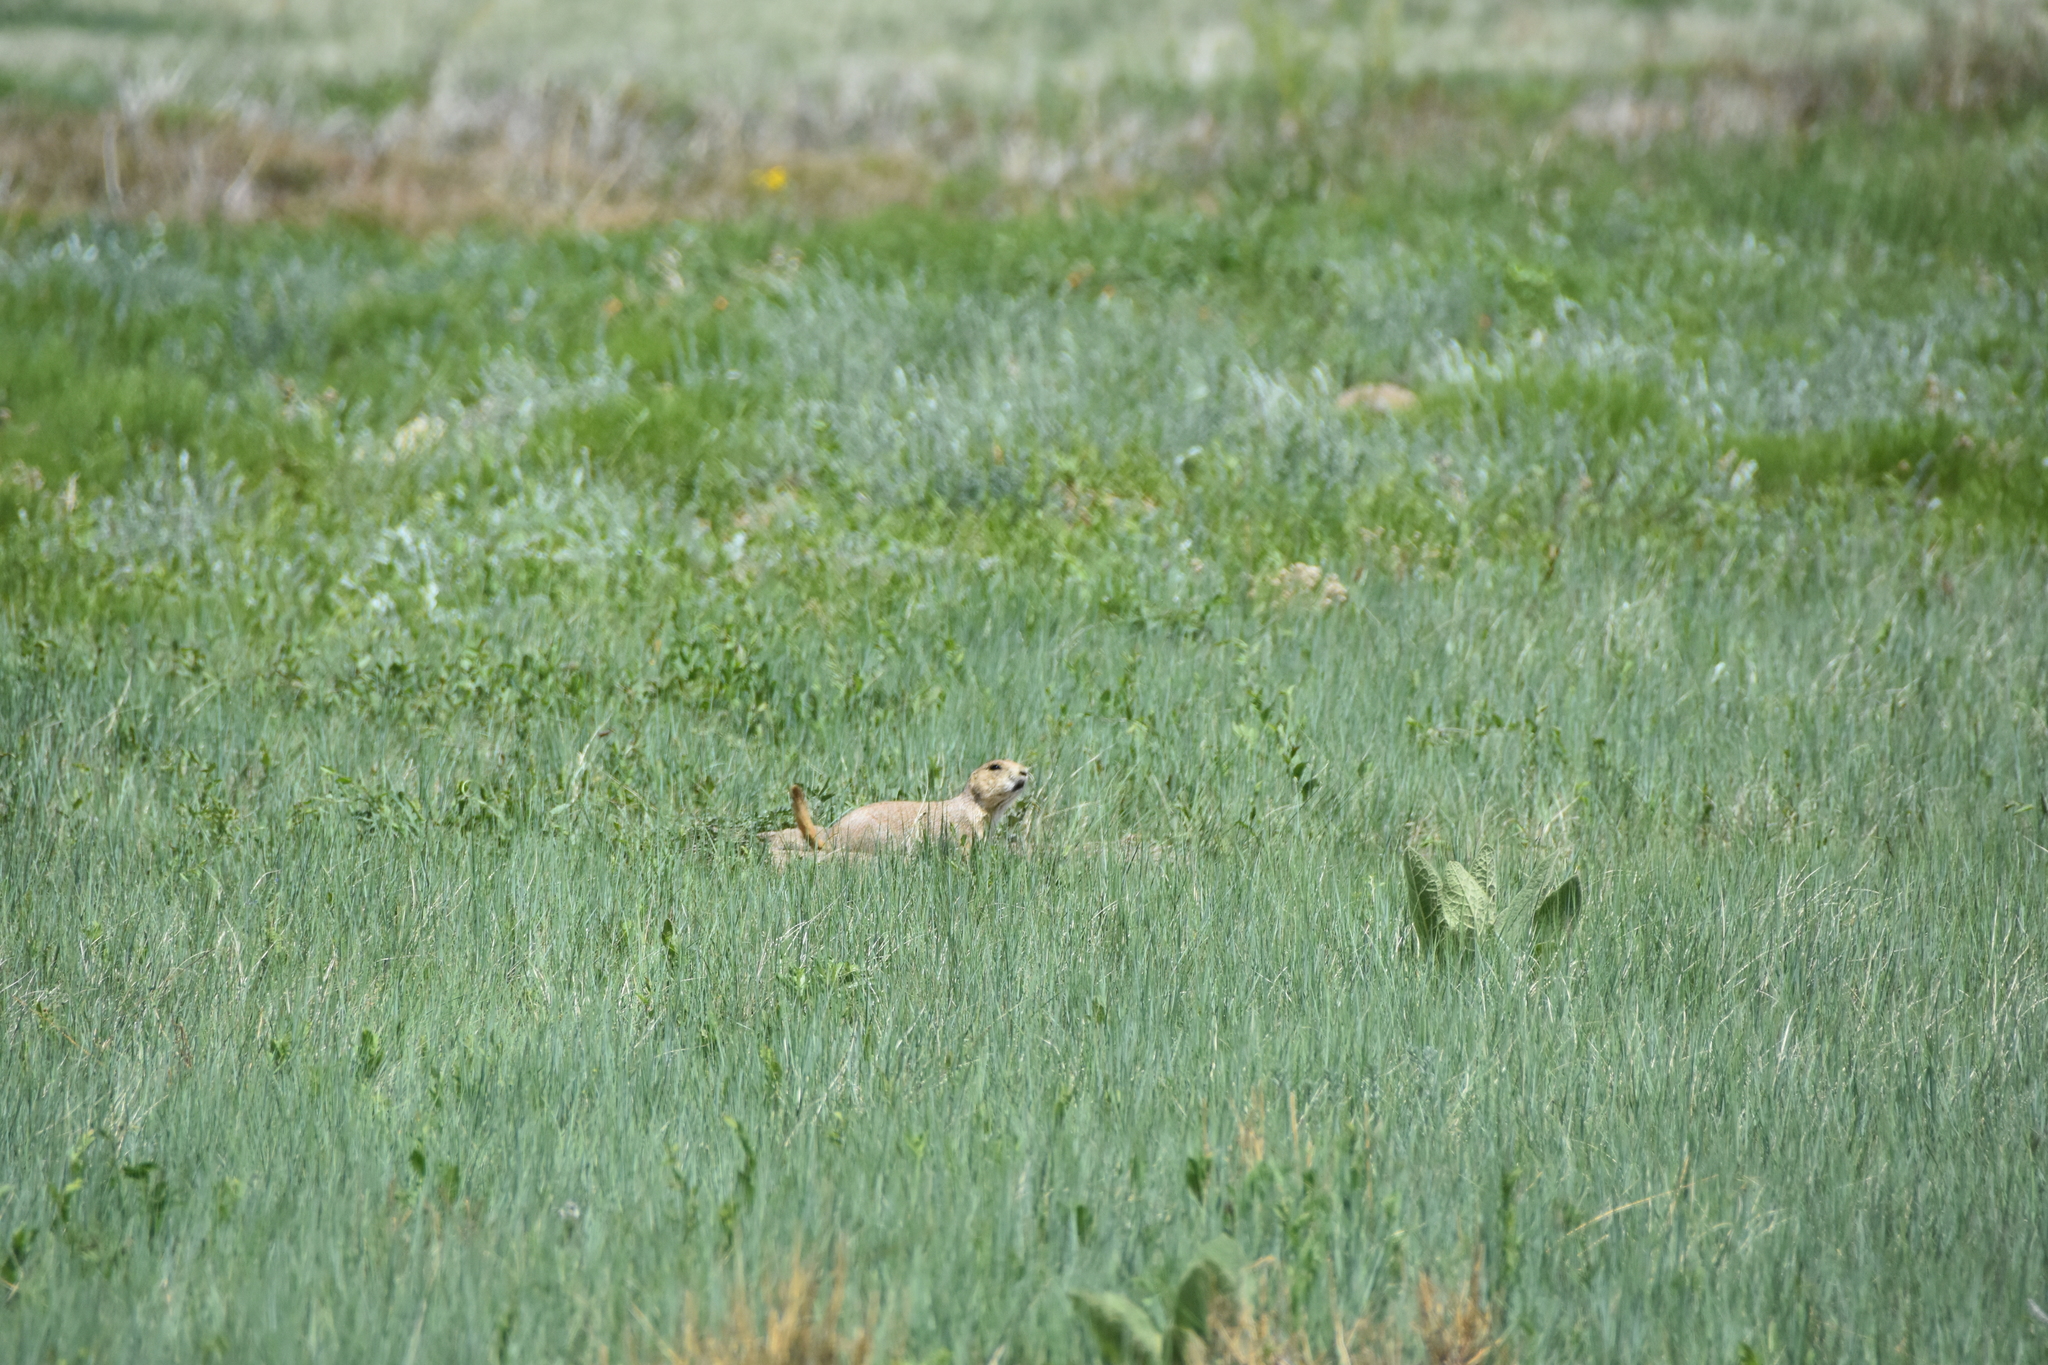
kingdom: Animalia
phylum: Chordata
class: Mammalia
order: Rodentia
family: Sciuridae
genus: Cynomys
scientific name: Cynomys ludovicianus
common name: Black-tailed prairie dog
